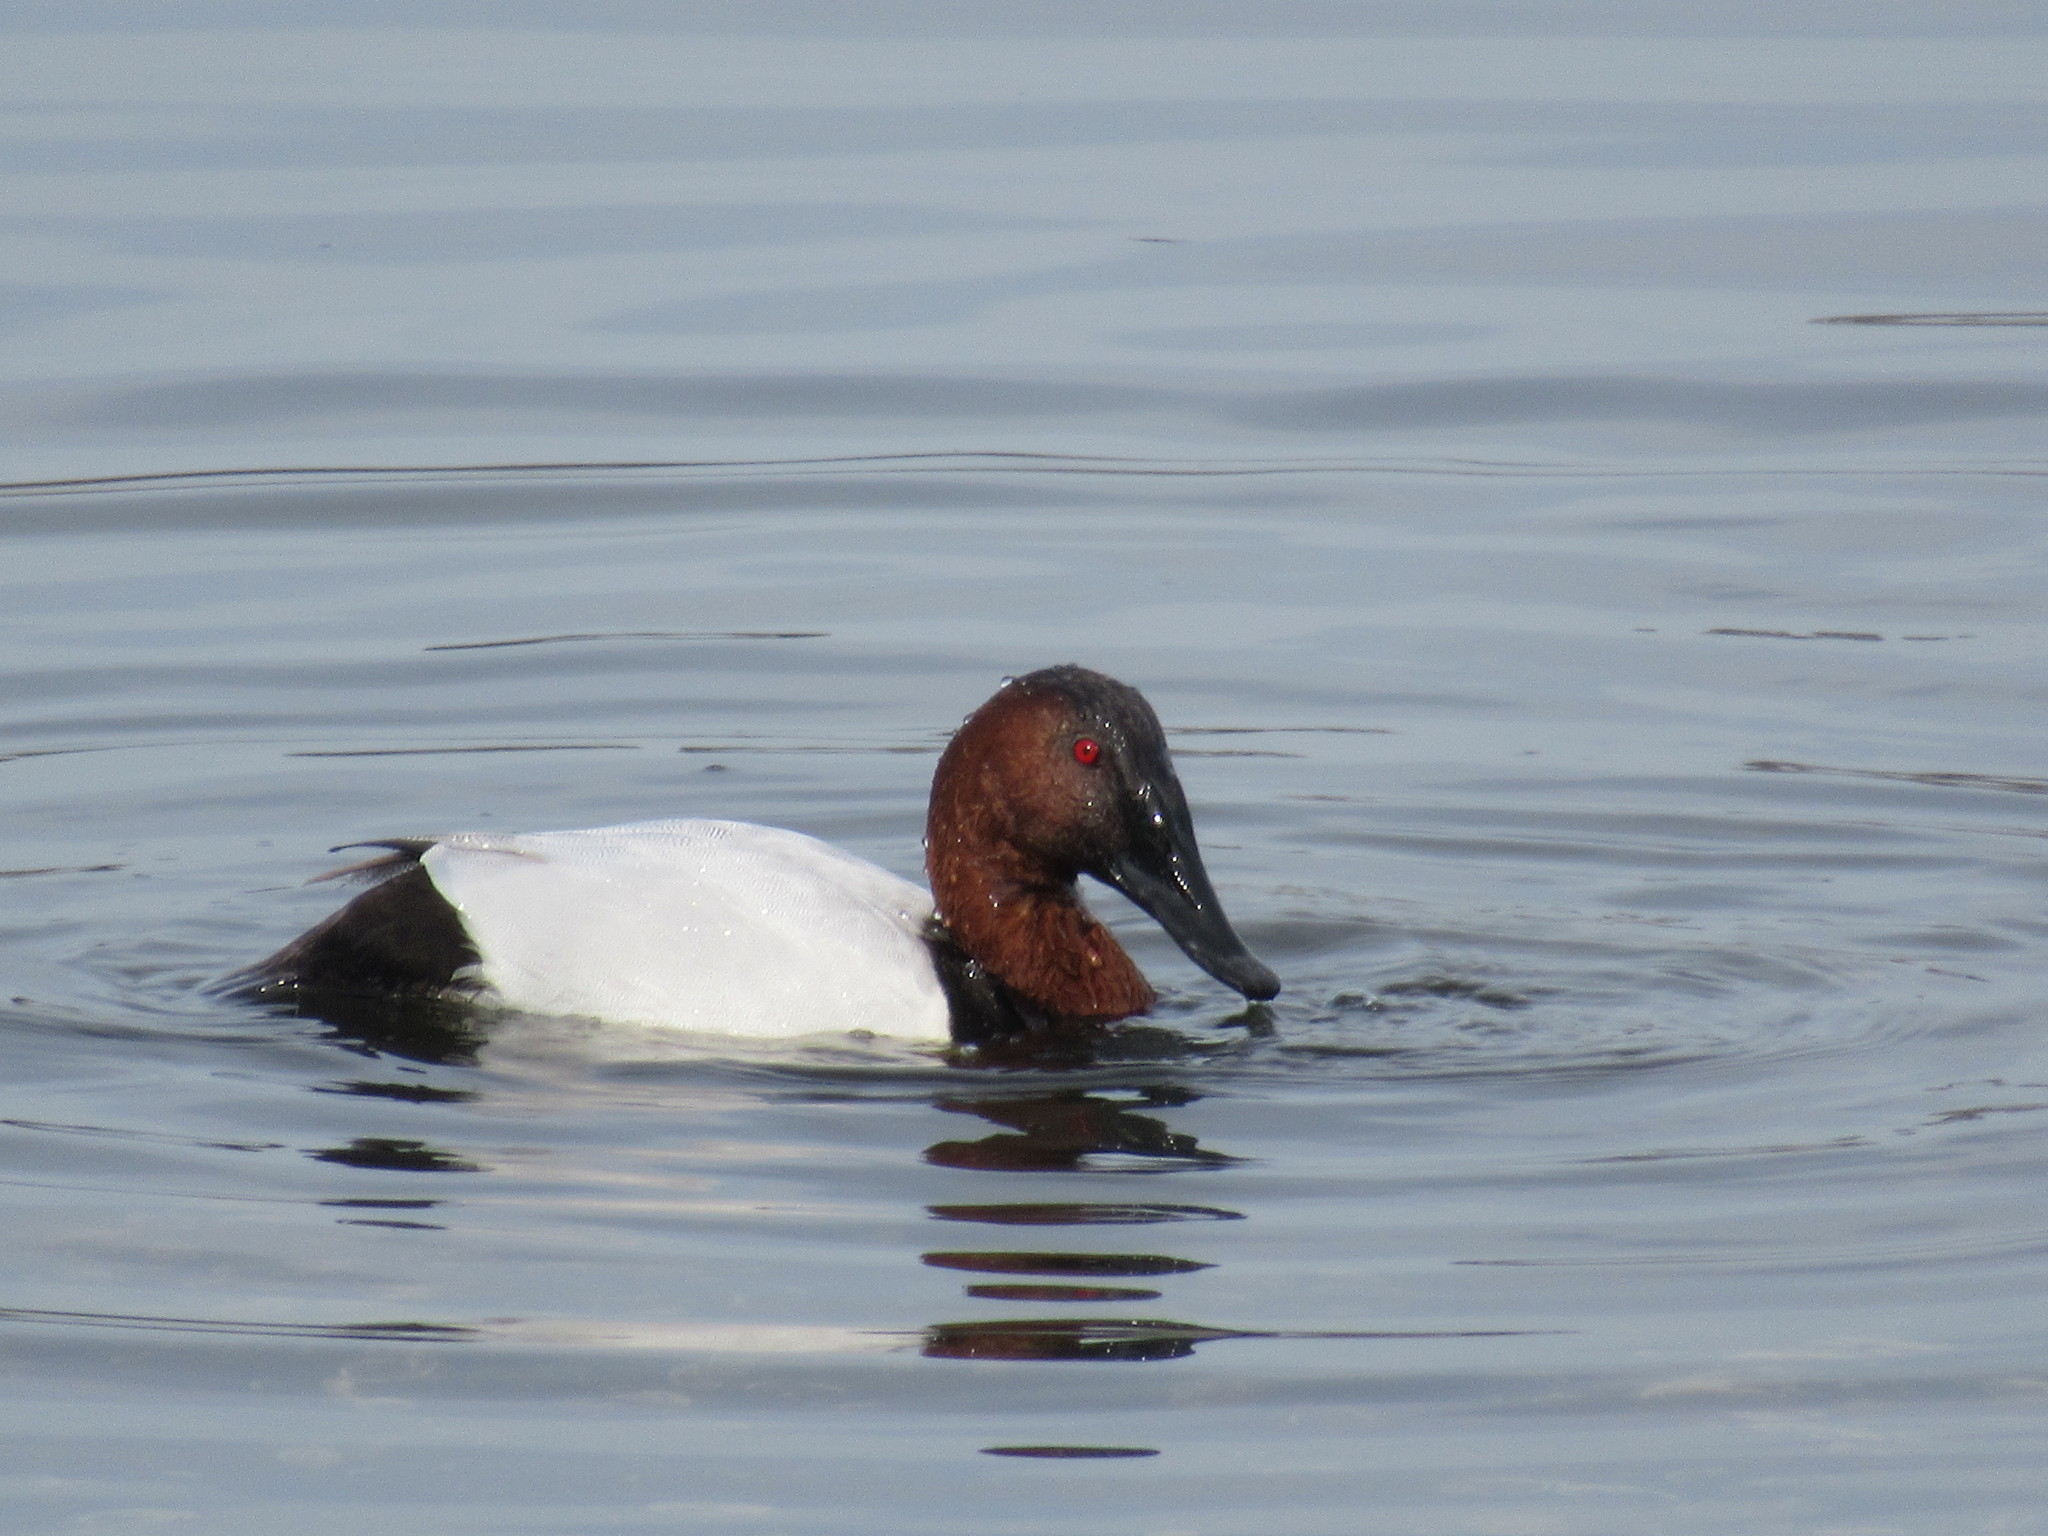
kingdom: Animalia
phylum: Chordata
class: Aves
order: Anseriformes
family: Anatidae
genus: Aythya
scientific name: Aythya valisineria
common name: Canvasback
